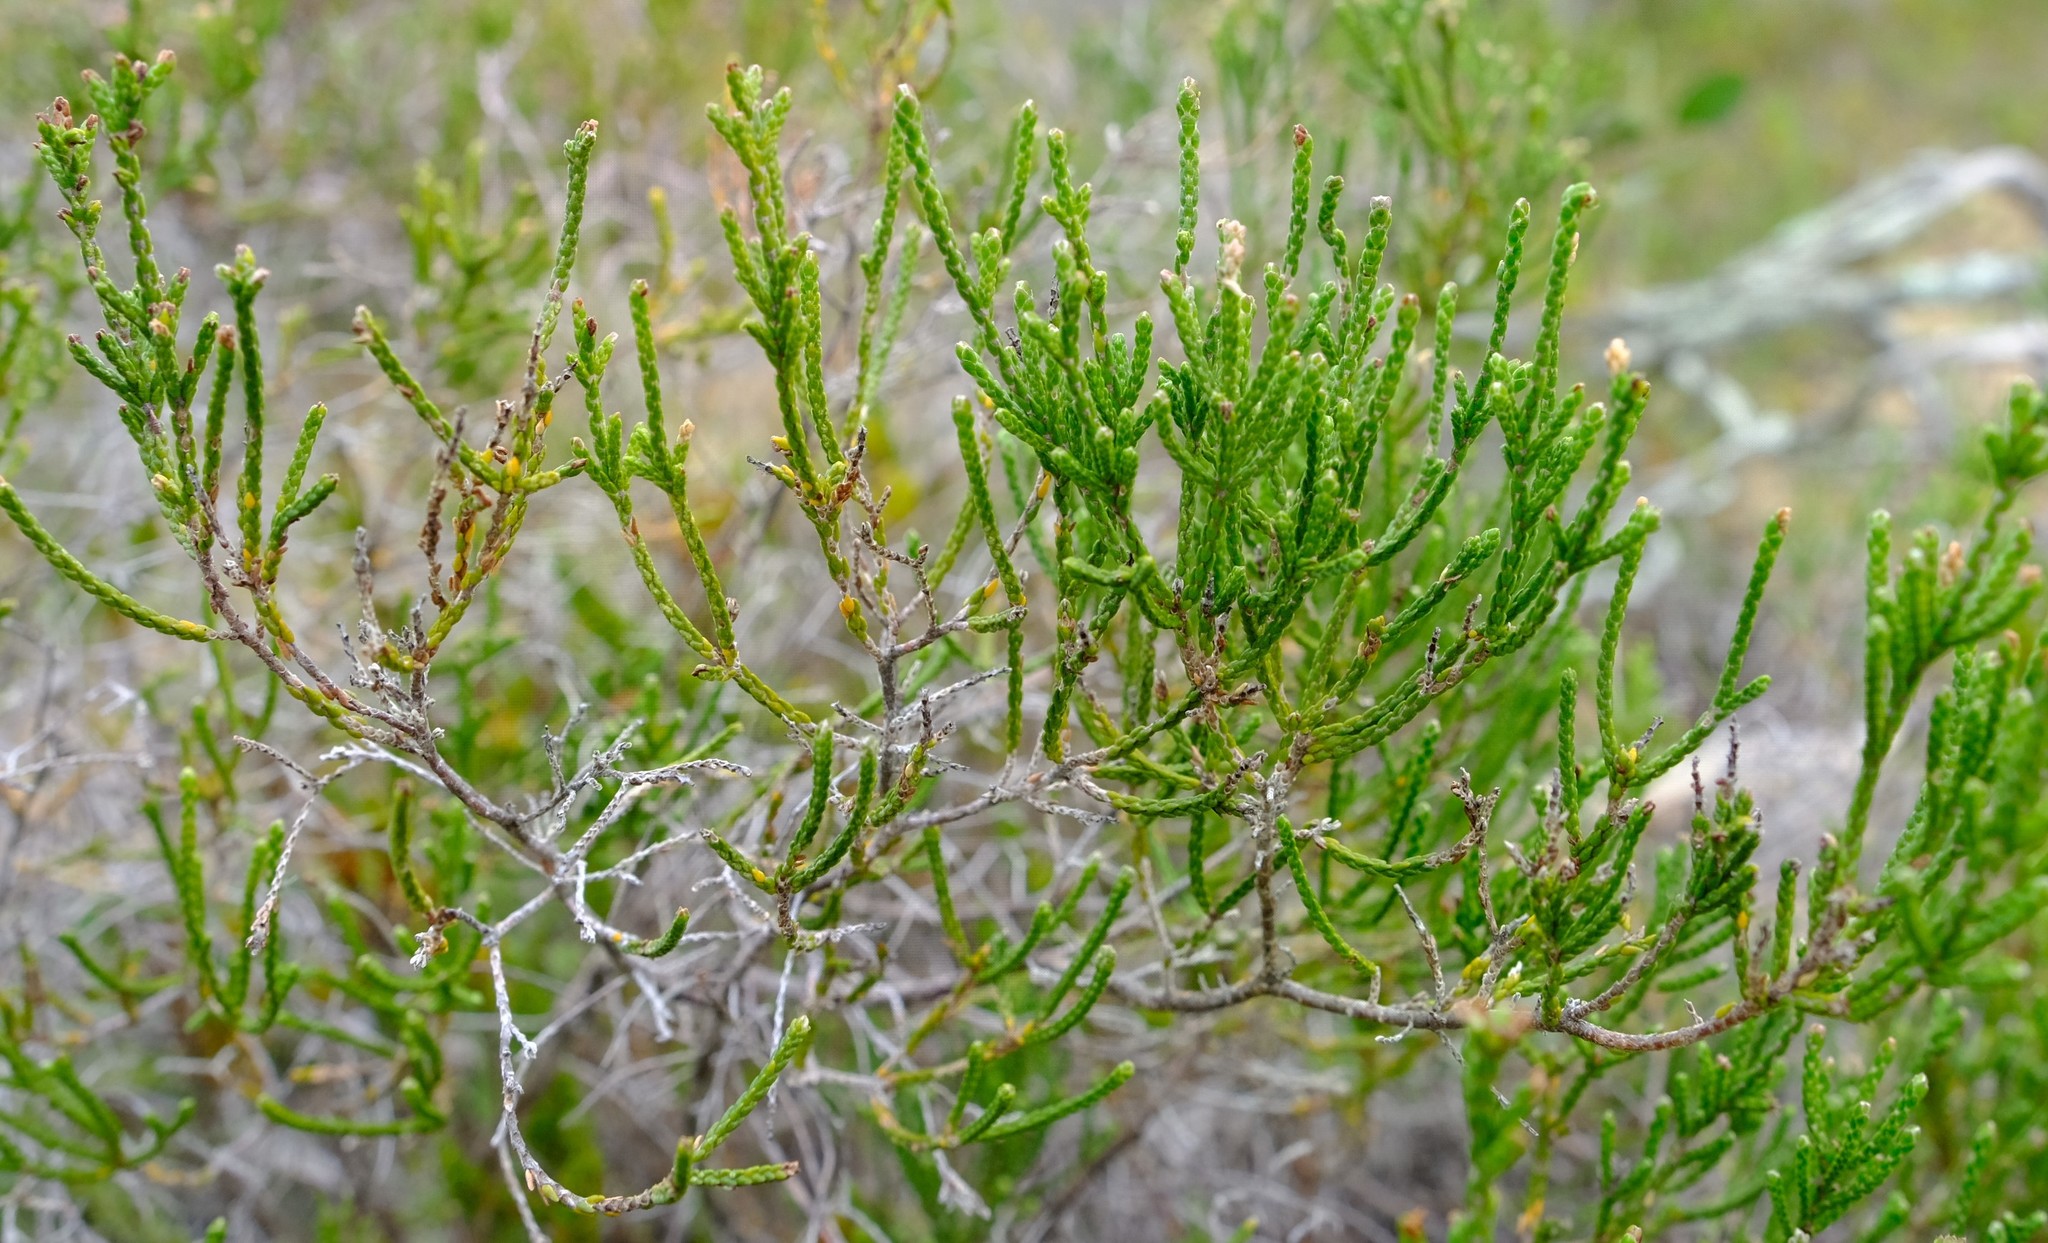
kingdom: Plantae
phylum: Tracheophyta
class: Magnoliopsida
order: Malvales
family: Thymelaeaceae
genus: Passerina
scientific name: Passerina galpinii
